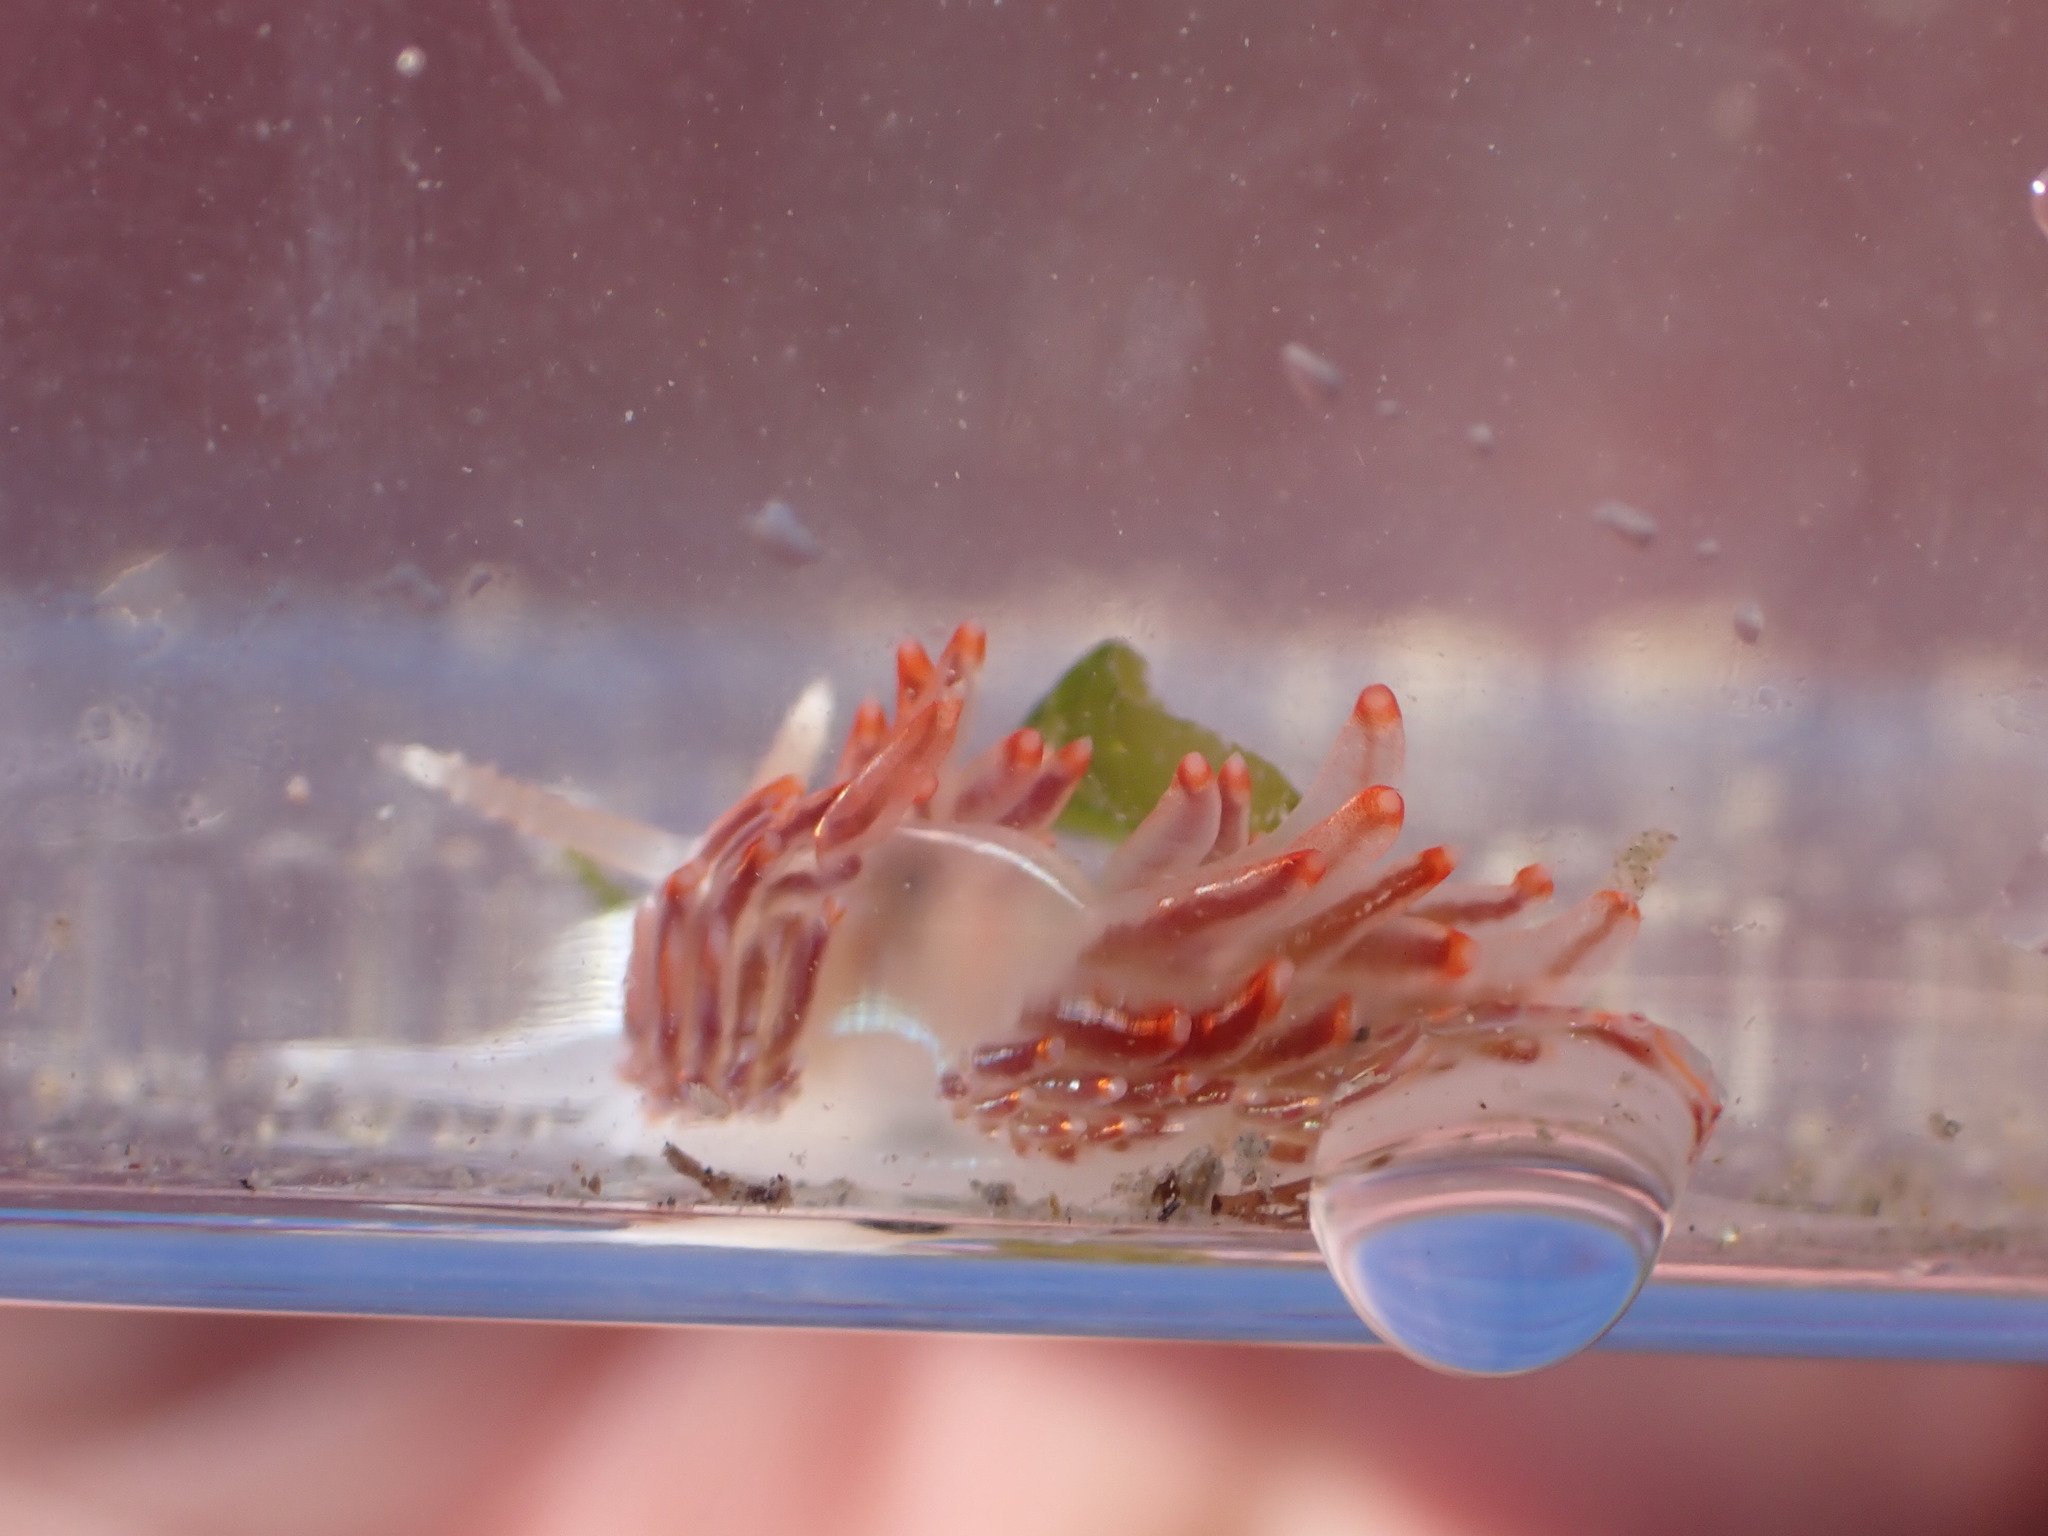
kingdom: Animalia
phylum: Mollusca
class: Gastropoda
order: Nudibranchia
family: Myrrhinidae
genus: Hermissenda
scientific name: Hermissenda crassicornis
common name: Hermissenda
